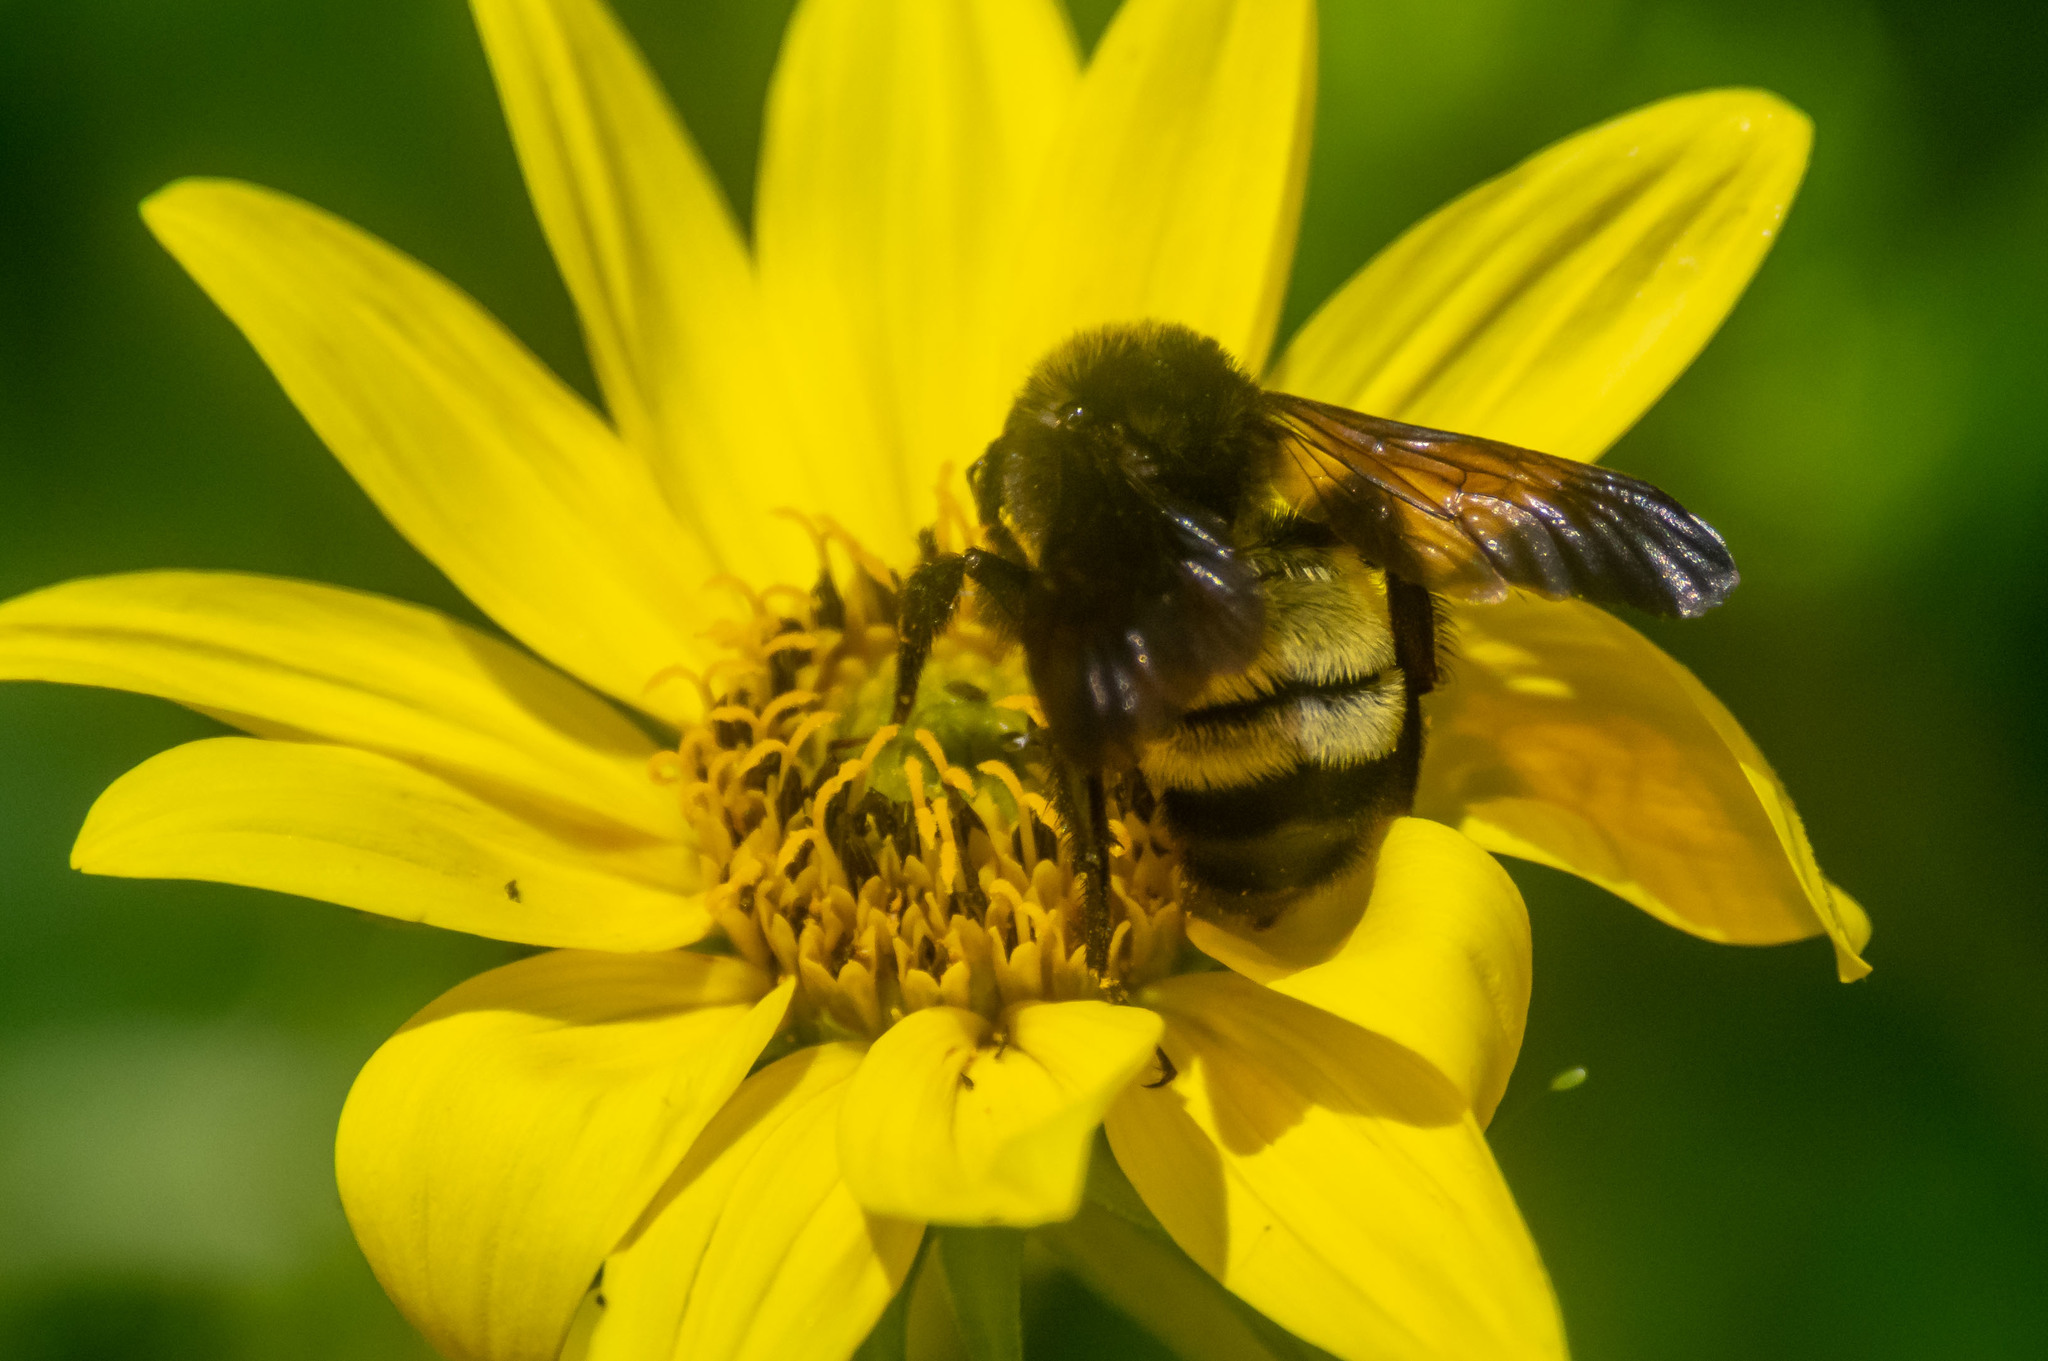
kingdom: Animalia
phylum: Arthropoda
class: Insecta
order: Hymenoptera
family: Apidae
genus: Bombus
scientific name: Bombus pensylvanicus
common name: Bumble bee
